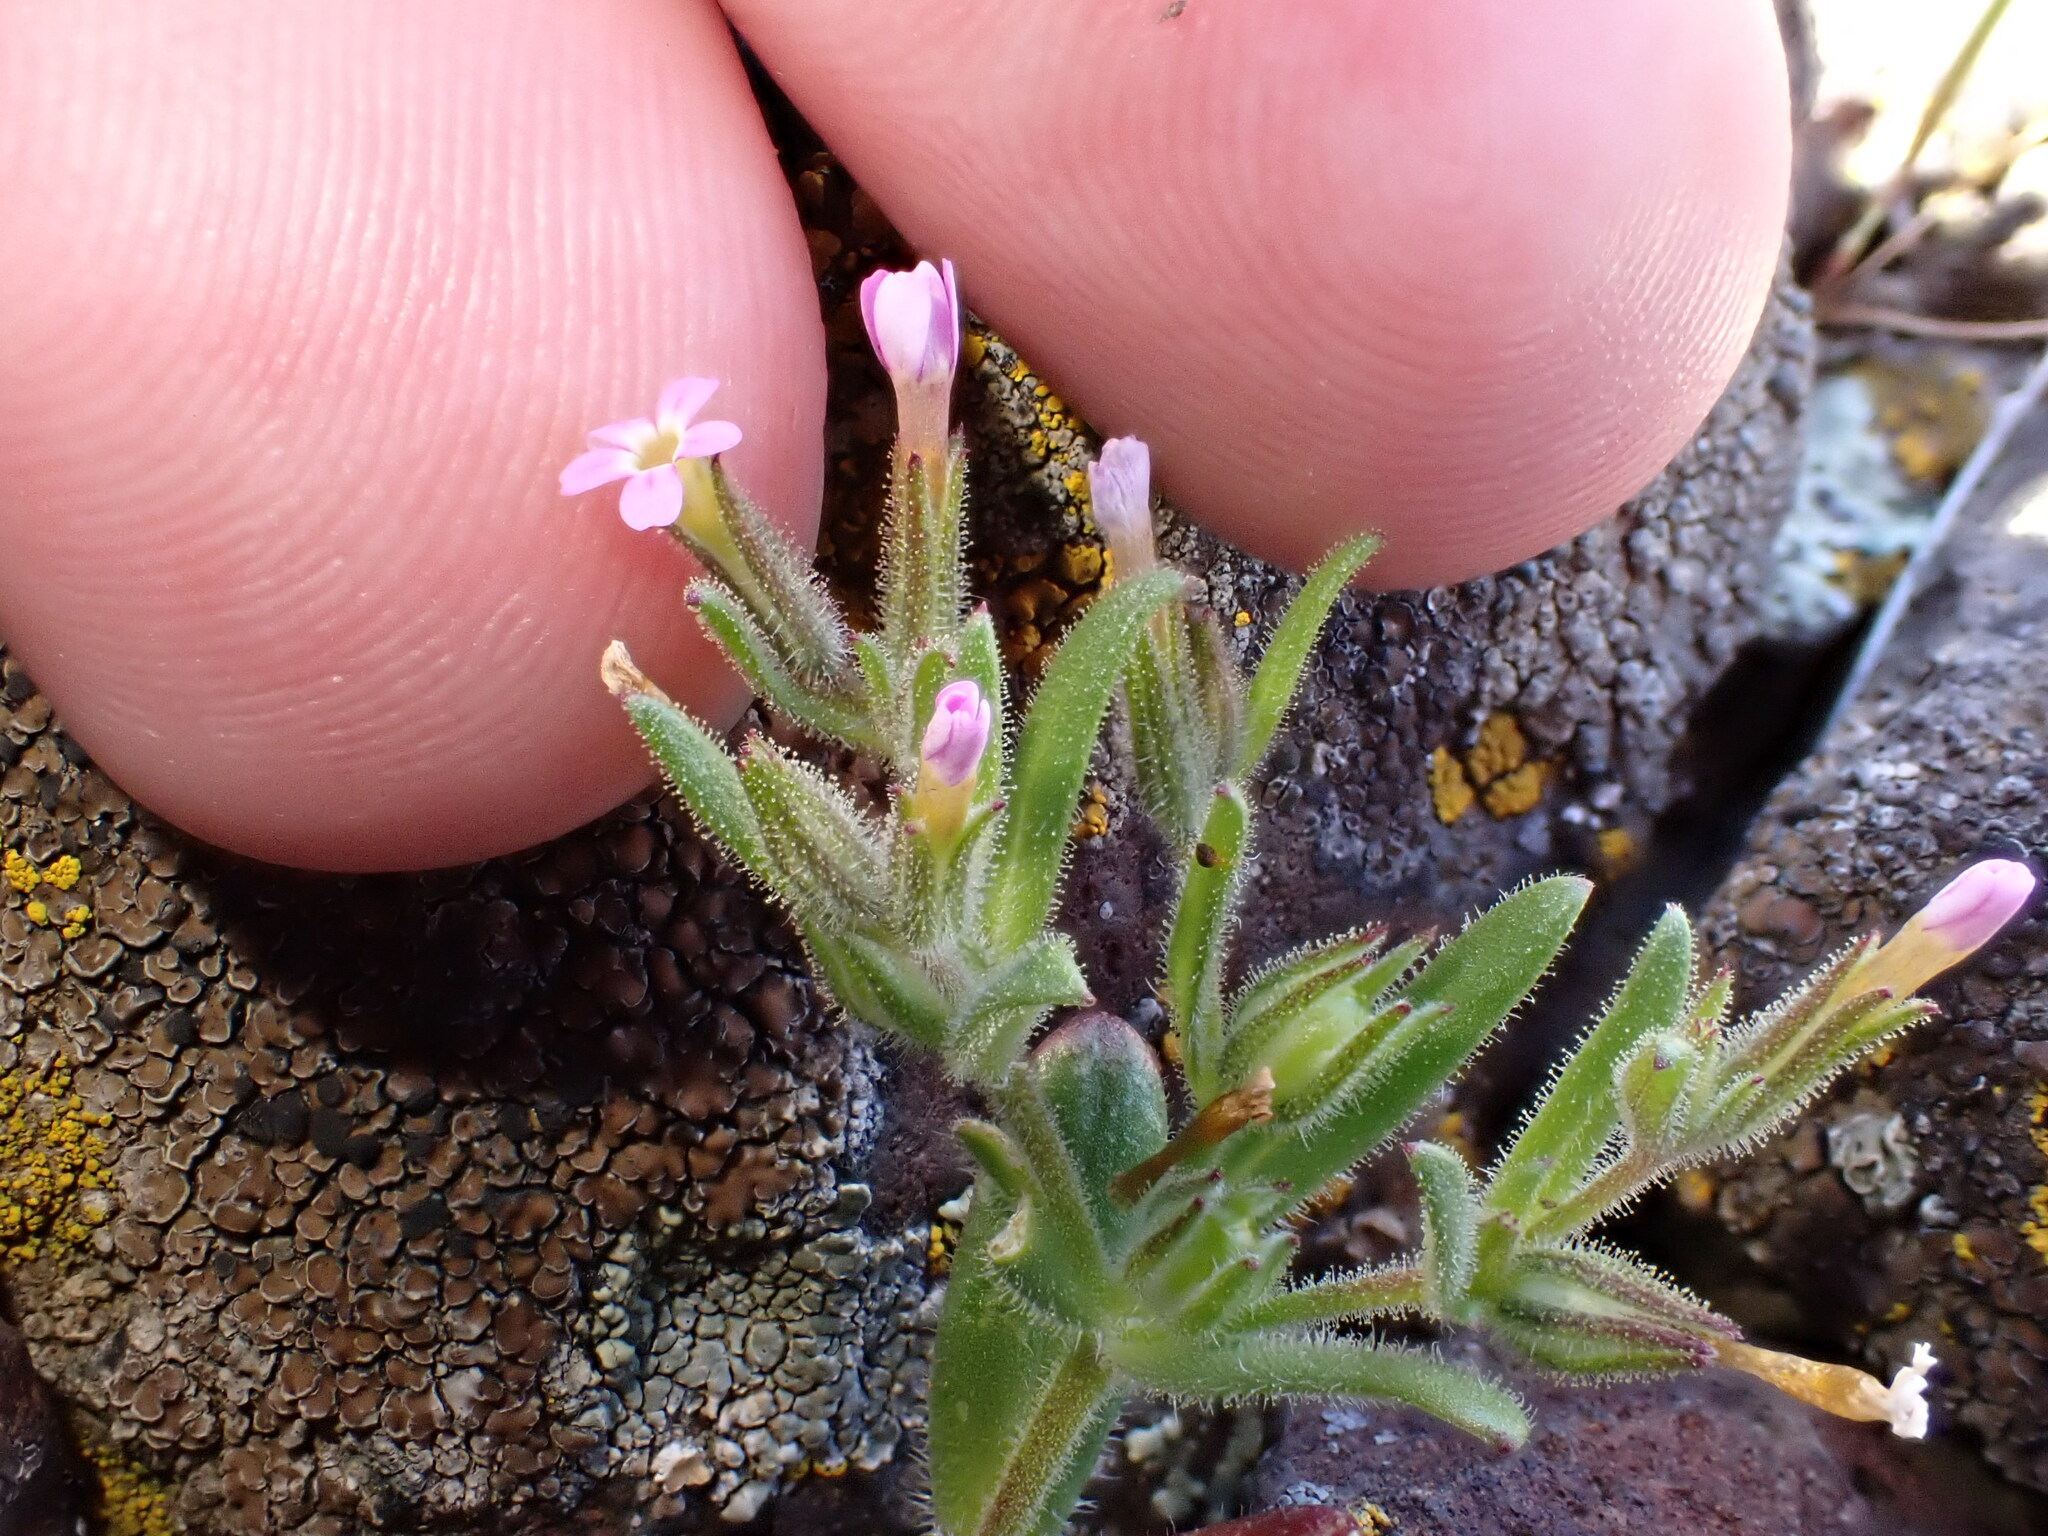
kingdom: Plantae
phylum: Tracheophyta
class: Magnoliopsida
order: Ericales
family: Polemoniaceae
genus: Phlox
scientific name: Phlox gracilis
